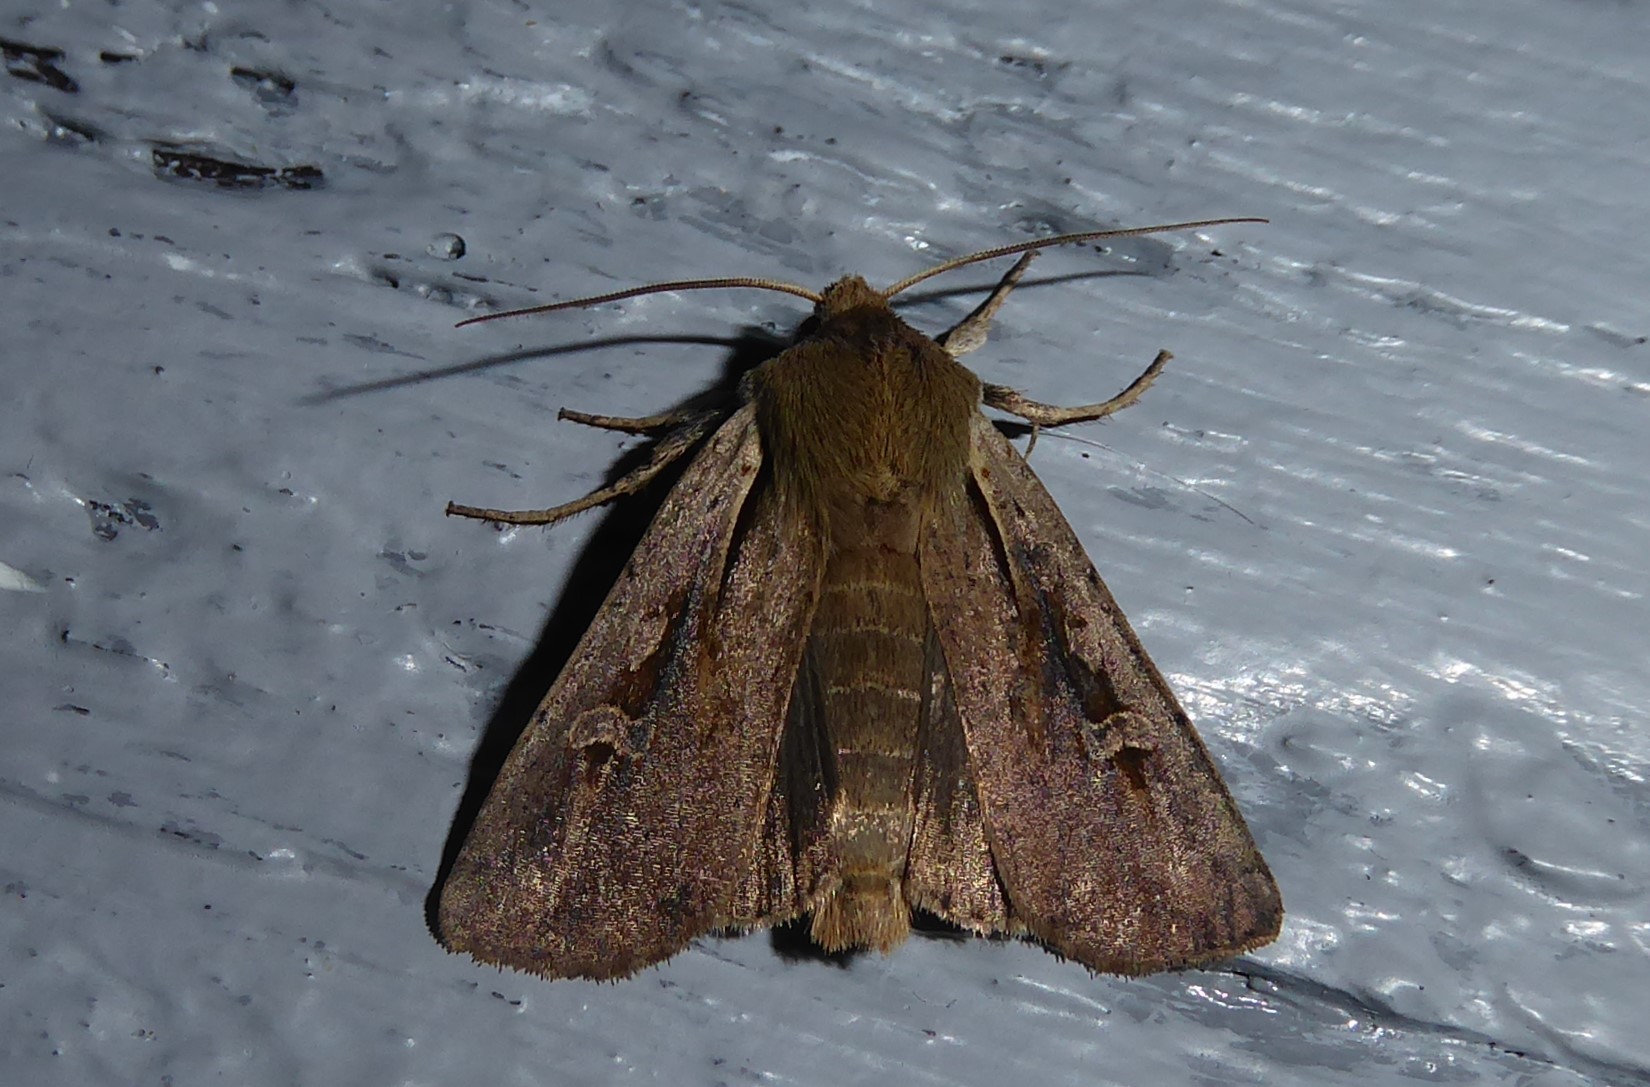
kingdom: Animalia
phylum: Arthropoda
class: Insecta
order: Lepidoptera
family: Noctuidae
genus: Ichneutica
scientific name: Ichneutica atristriga
